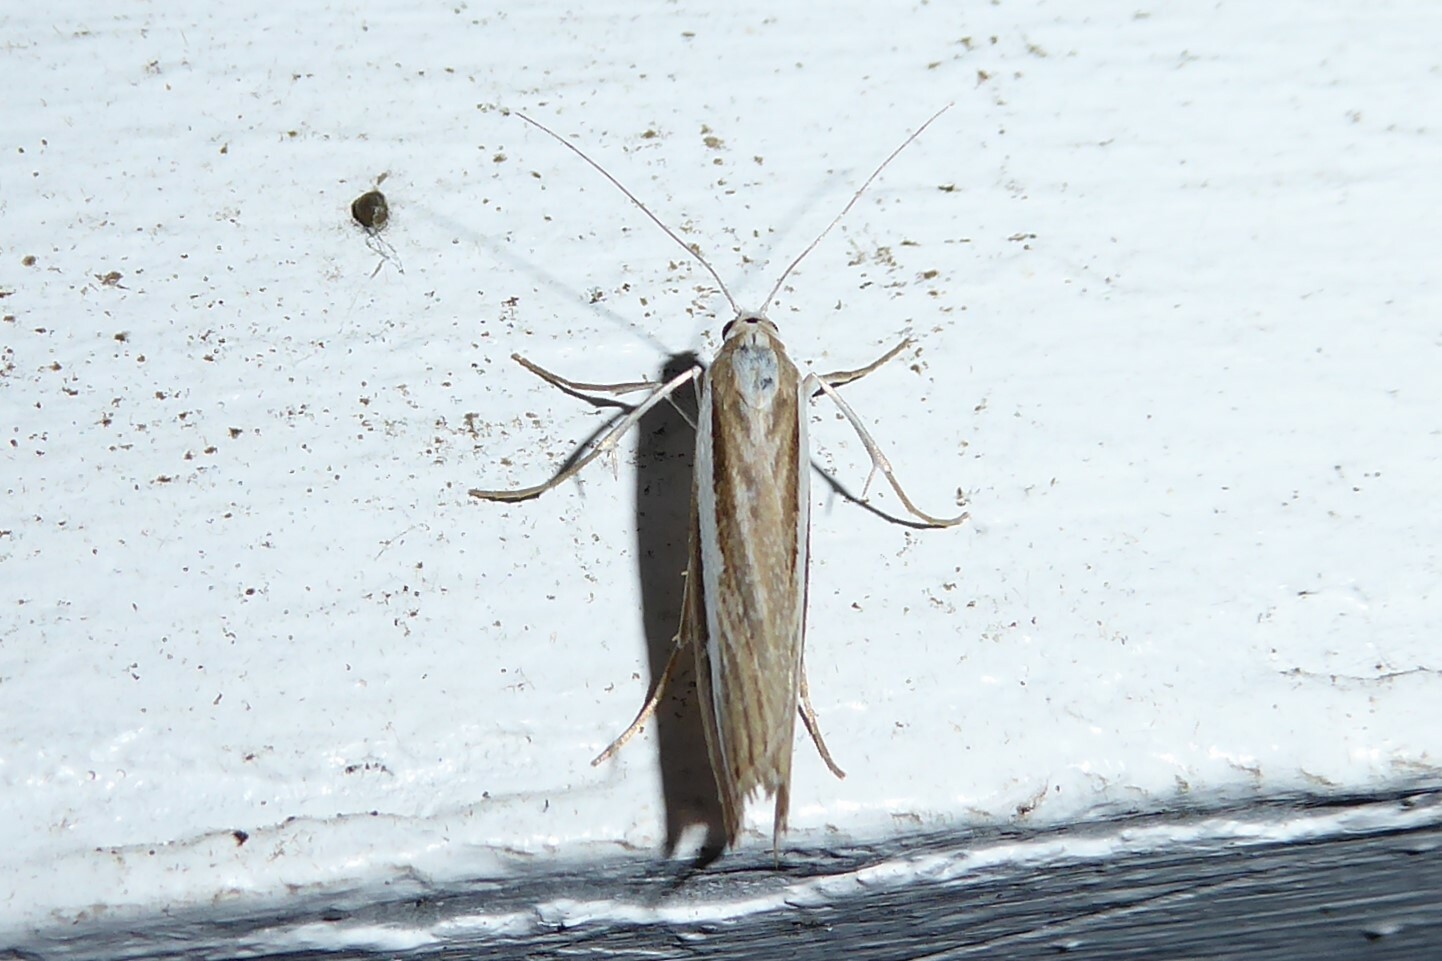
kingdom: Animalia
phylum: Arthropoda
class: Insecta
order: Lepidoptera
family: Crambidae
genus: Orocrambus
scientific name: Orocrambus vittellus
